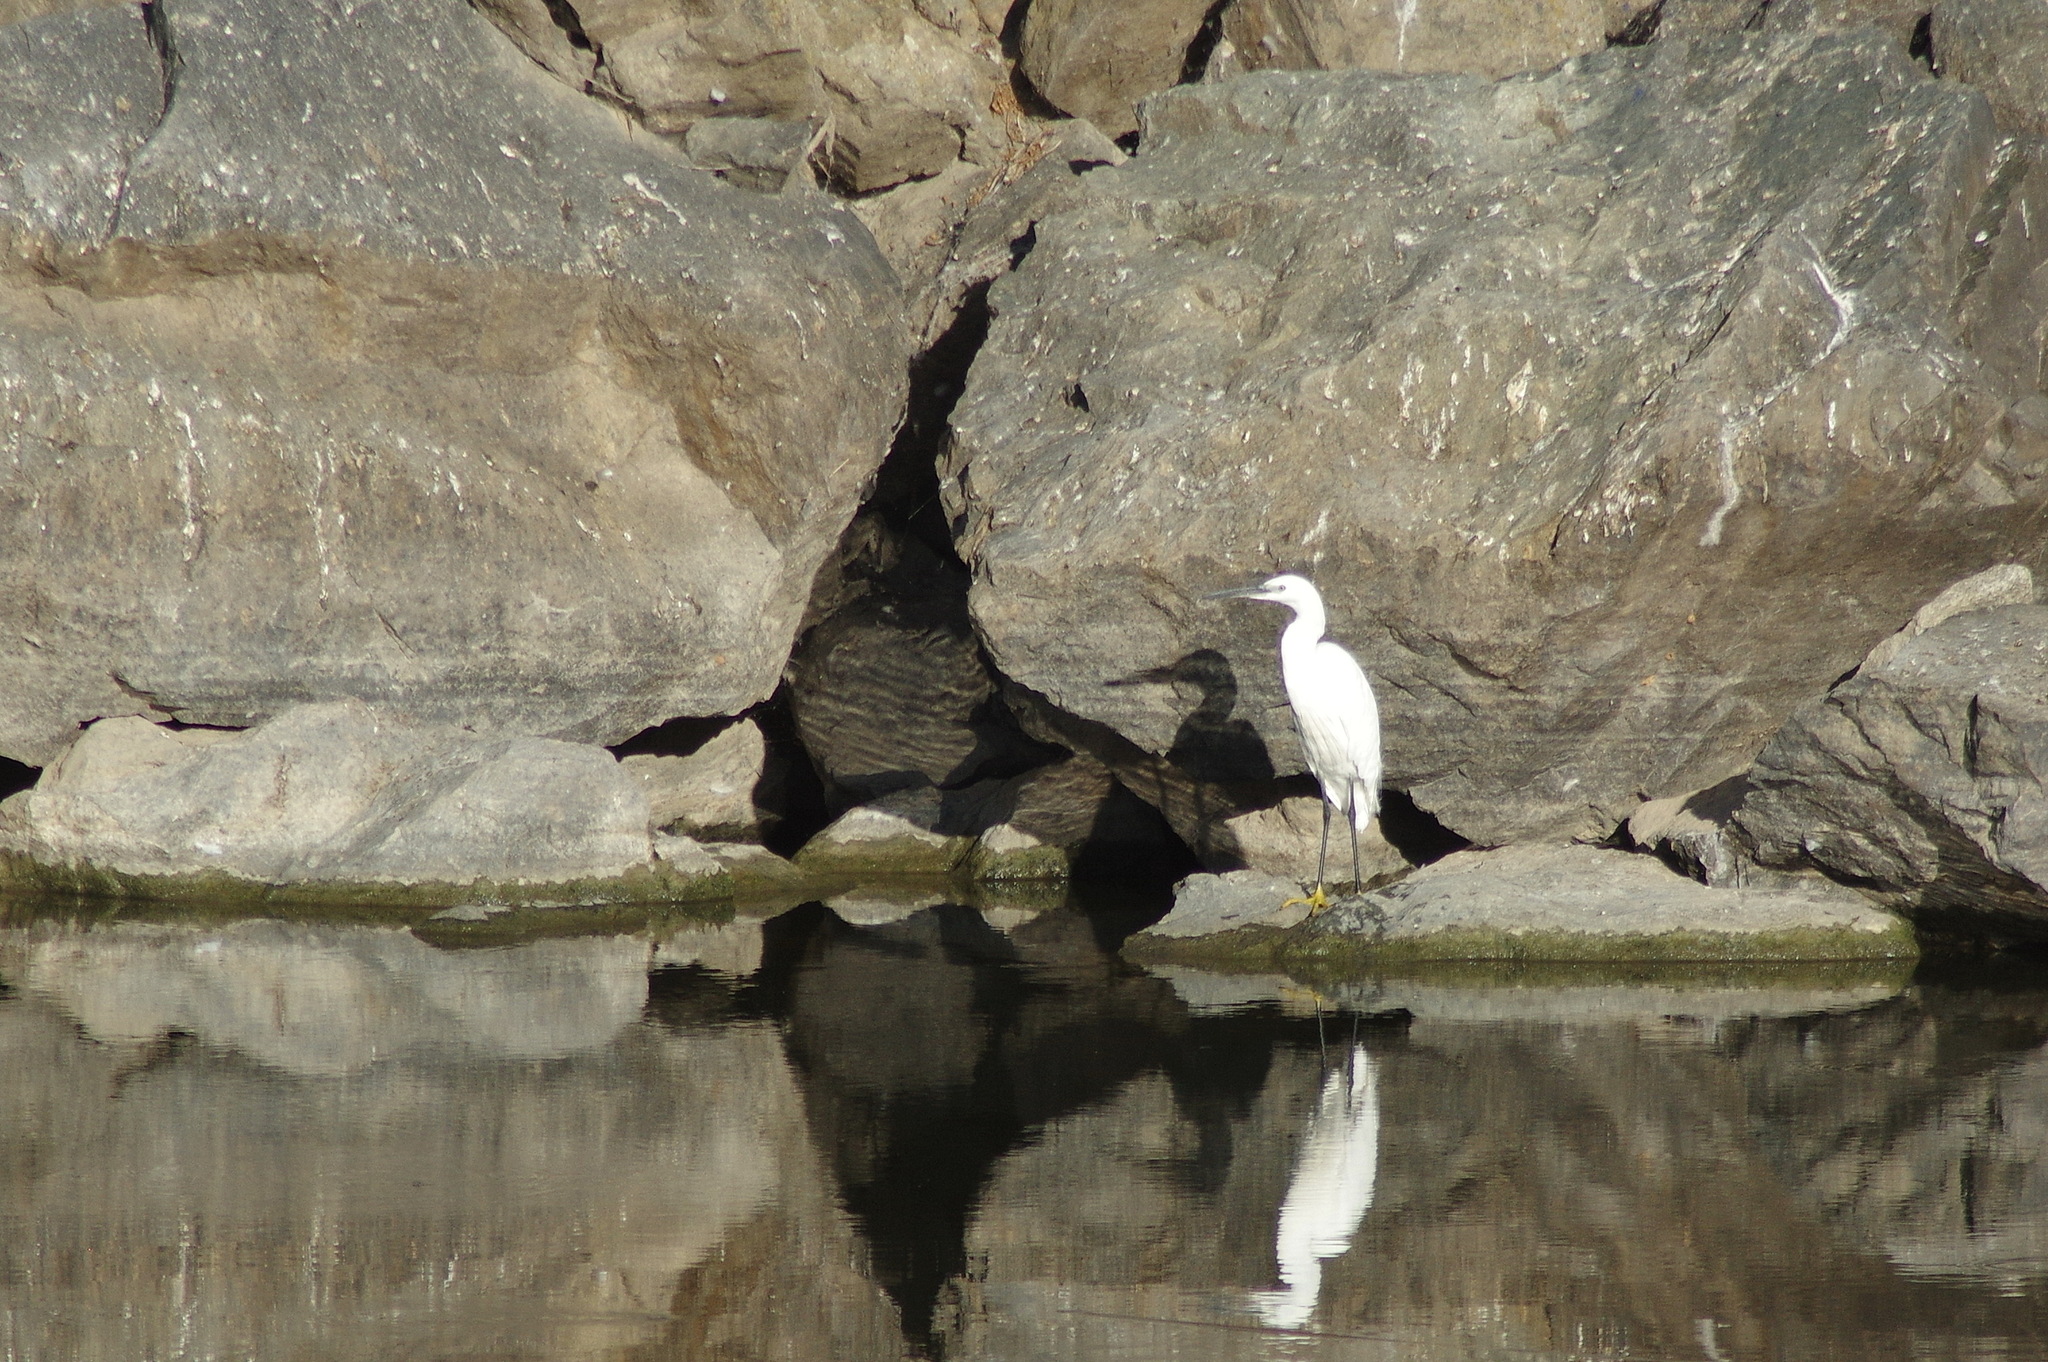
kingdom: Animalia
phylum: Chordata
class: Aves
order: Pelecaniformes
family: Ardeidae
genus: Egretta
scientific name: Egretta garzetta
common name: Little egret
